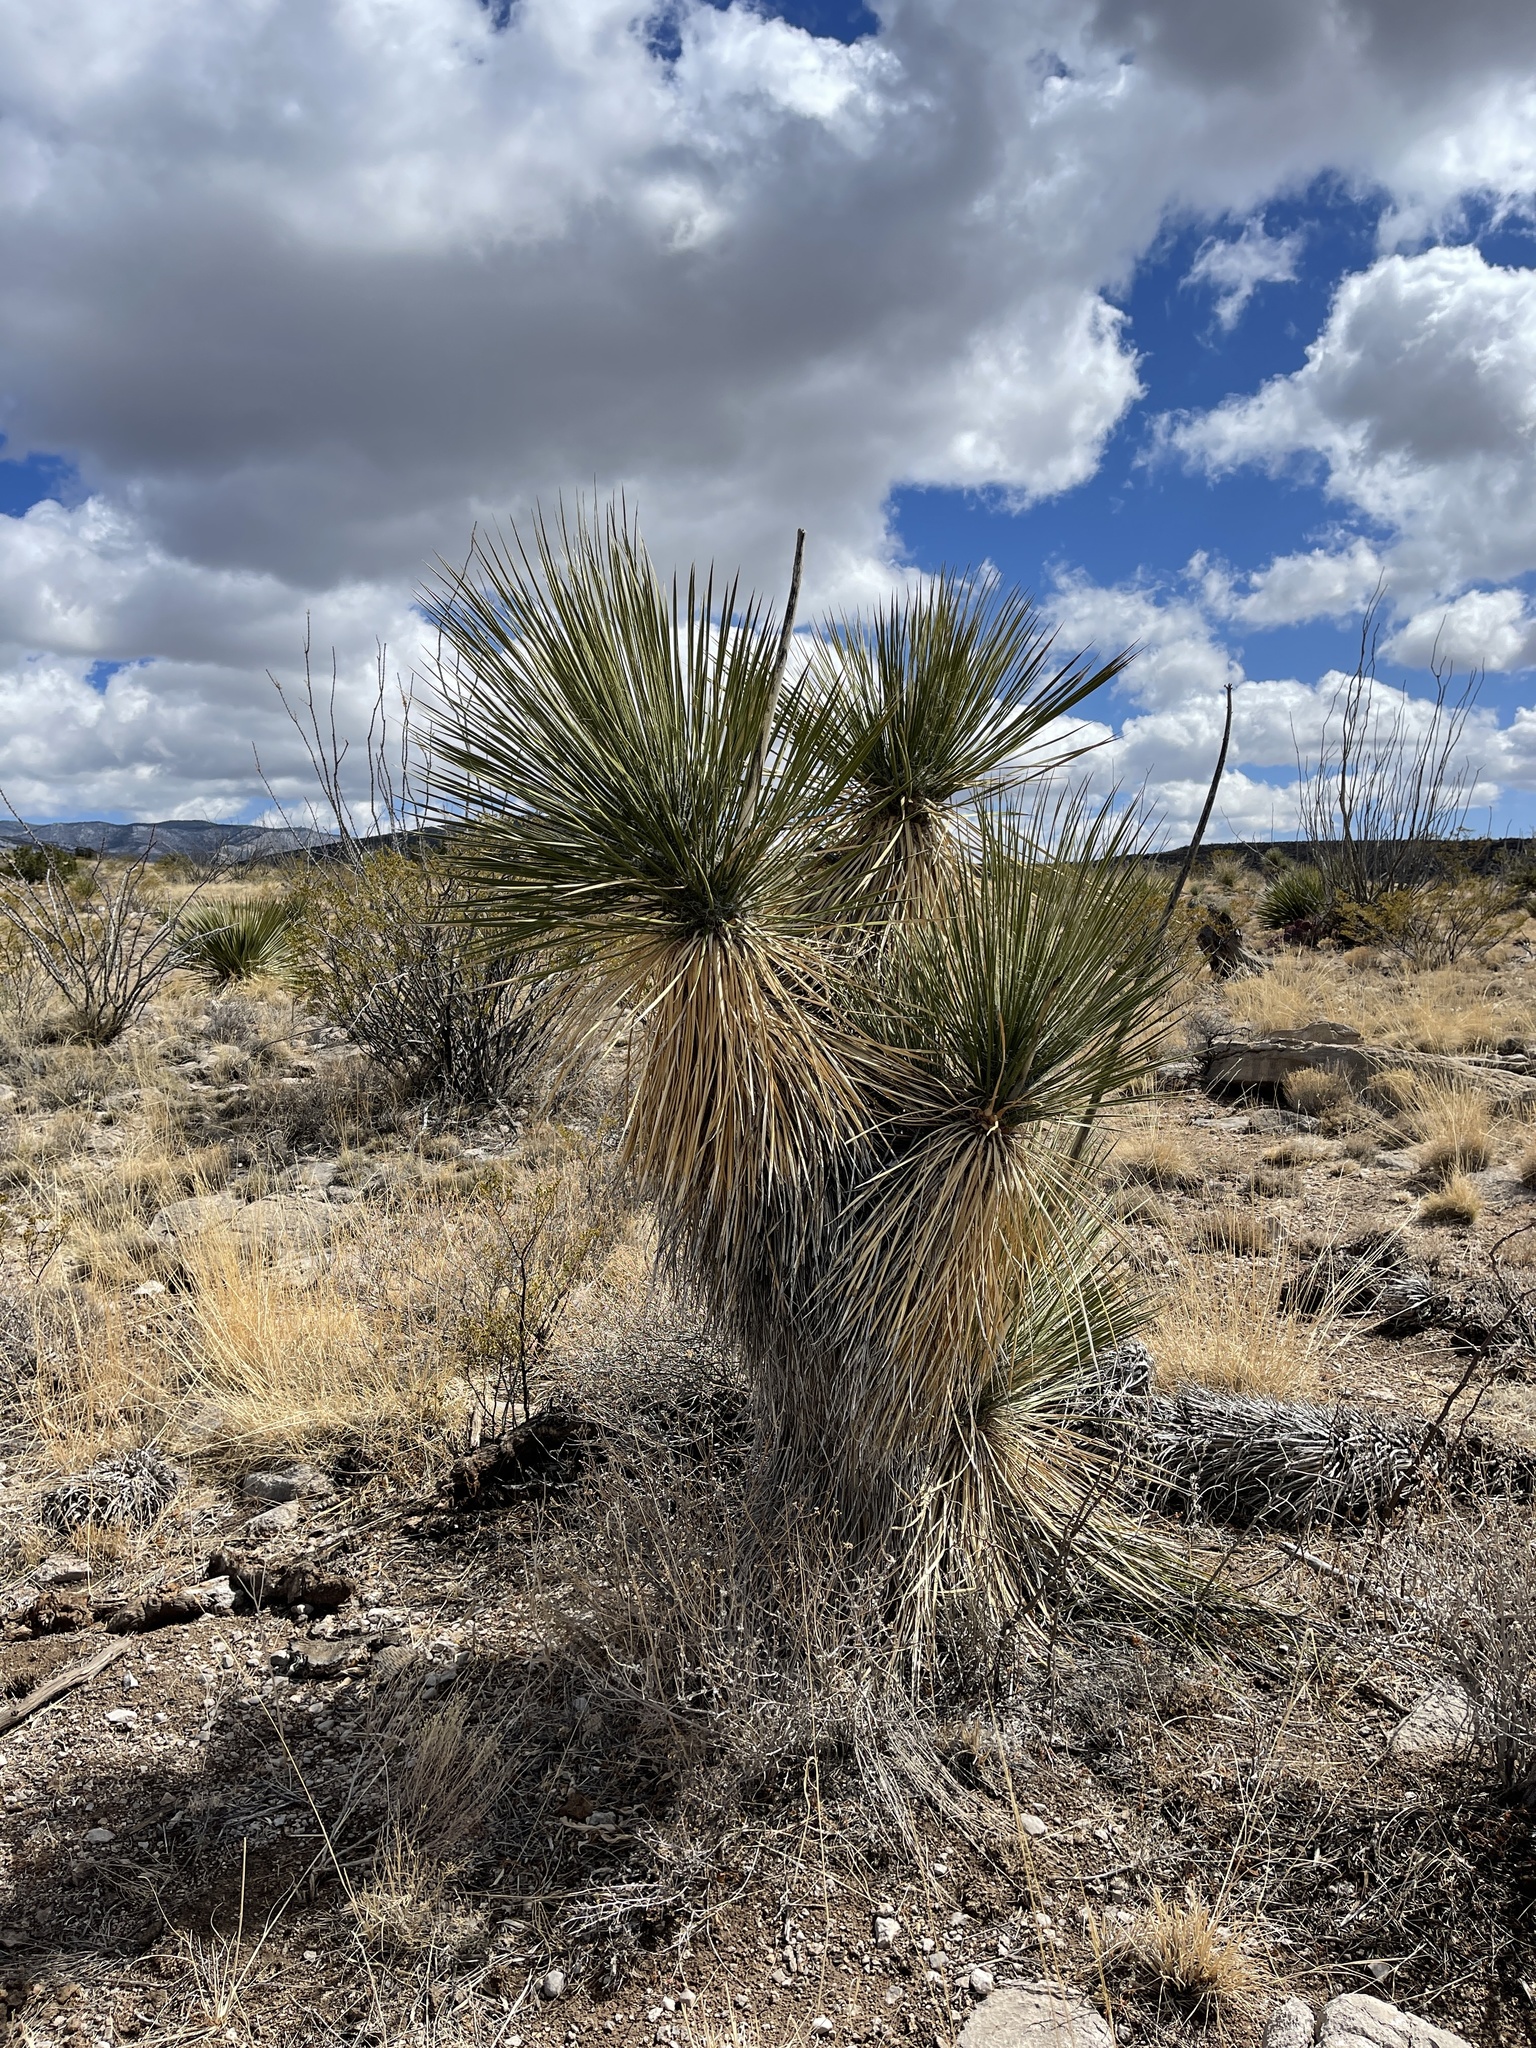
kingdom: Plantae
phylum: Tracheophyta
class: Liliopsida
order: Asparagales
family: Asparagaceae
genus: Yucca
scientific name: Yucca elata
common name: Palmella
